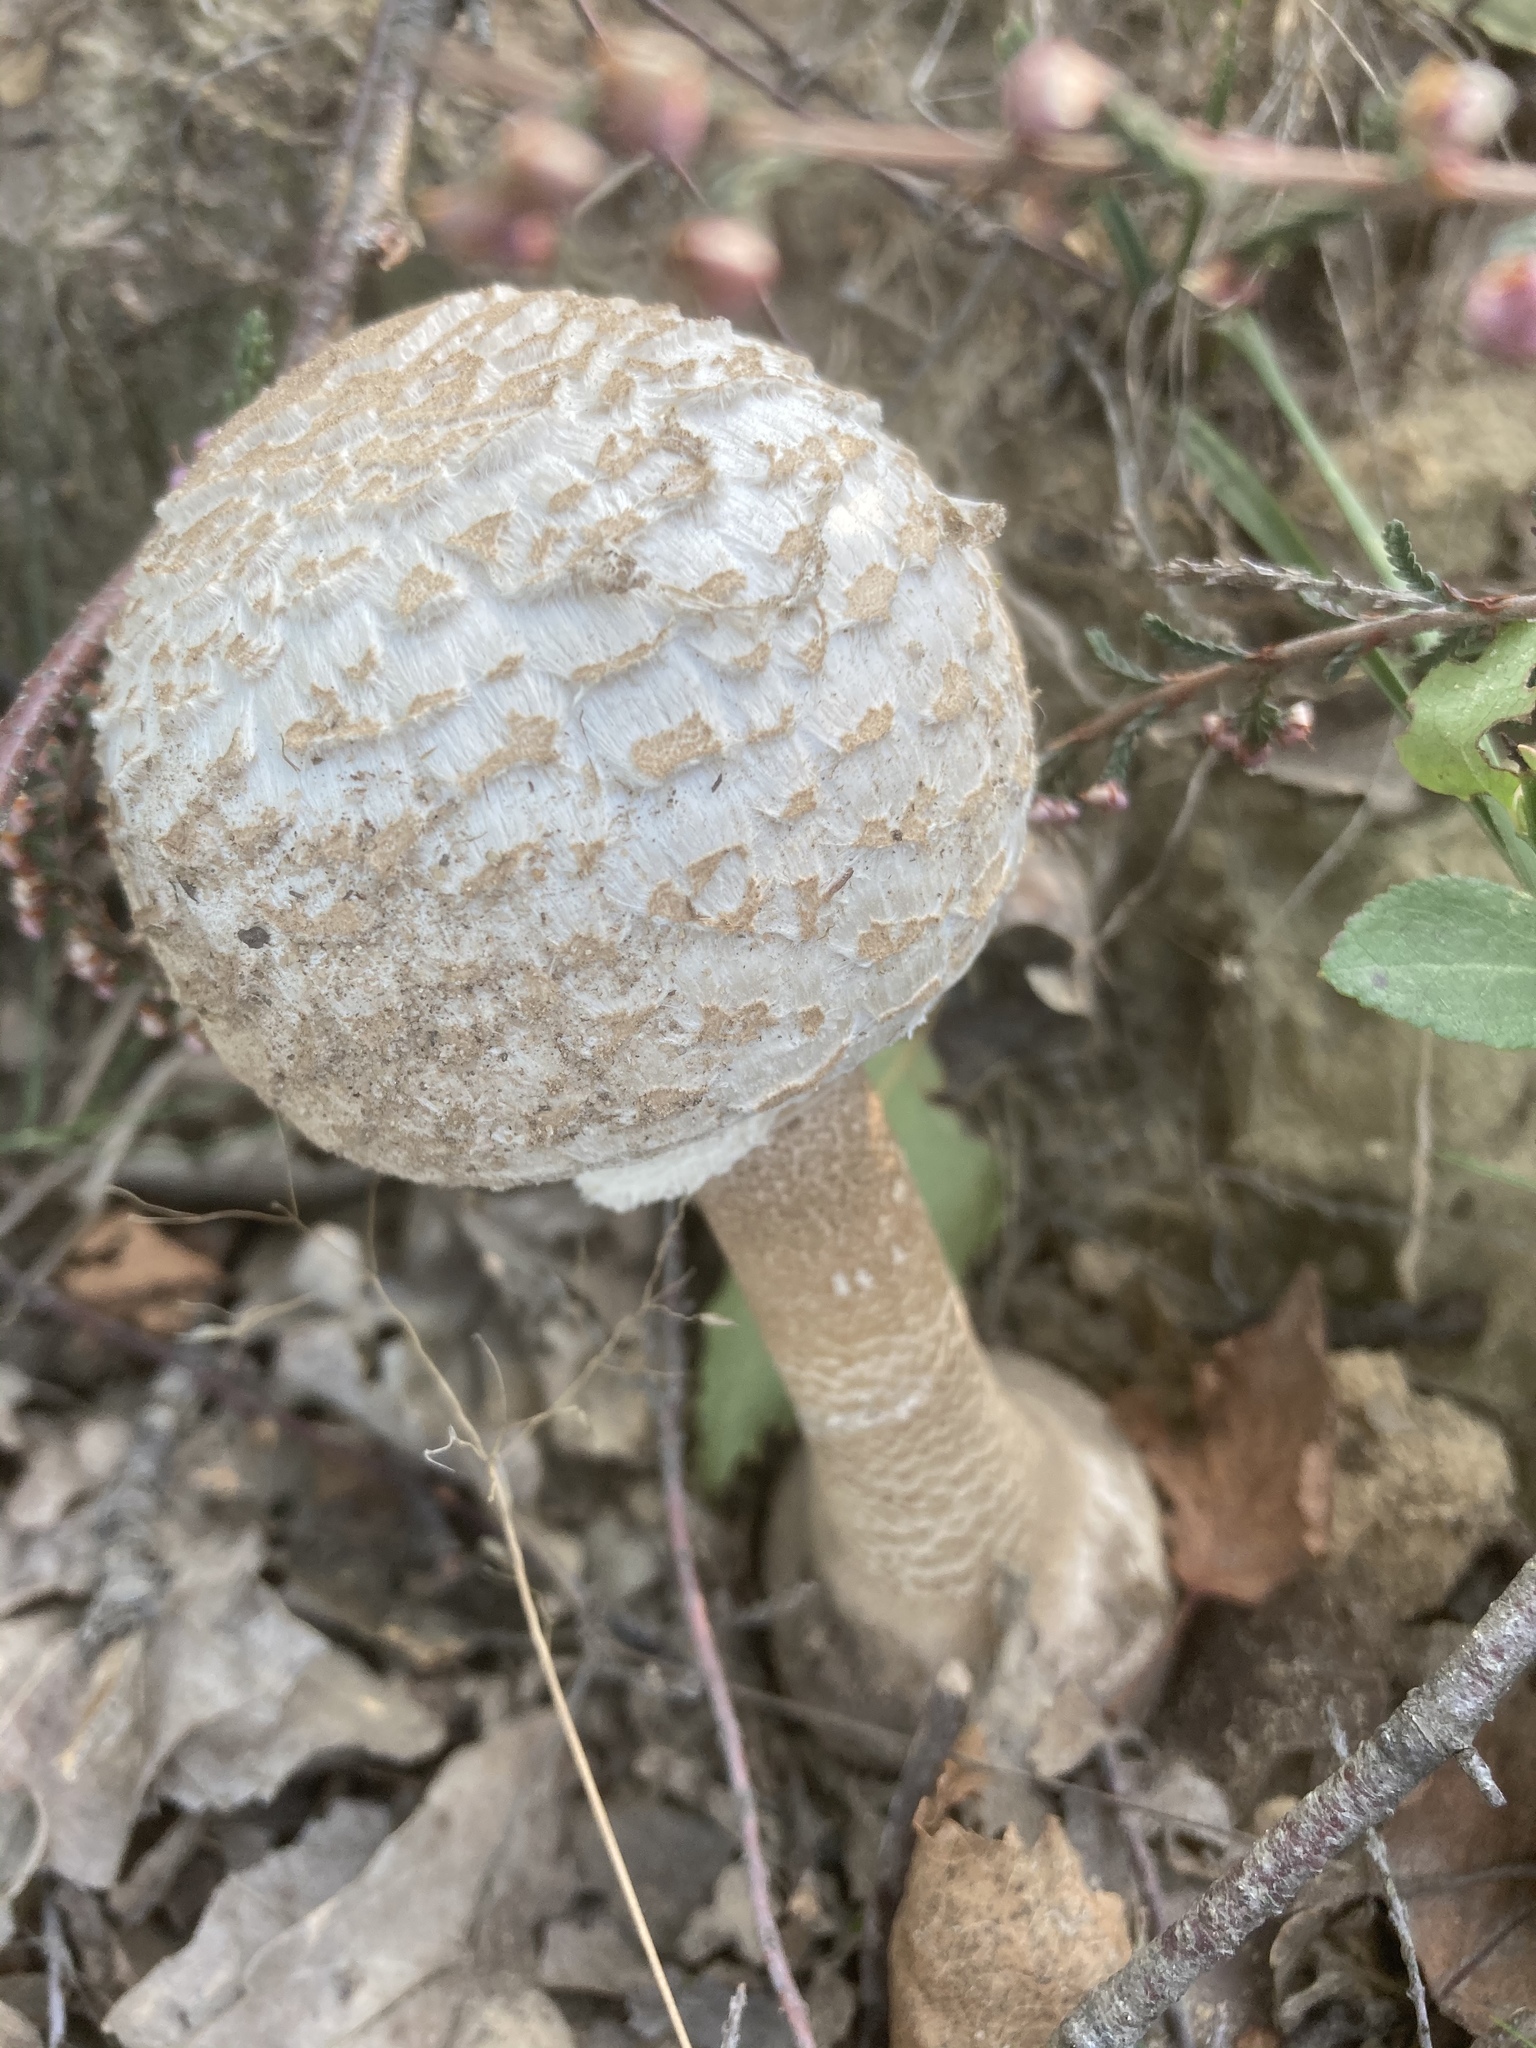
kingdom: Fungi
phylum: Basidiomycota
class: Agaricomycetes
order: Agaricales
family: Agaricaceae
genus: Macrolepiota
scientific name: Macrolepiota procera
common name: Parasol
